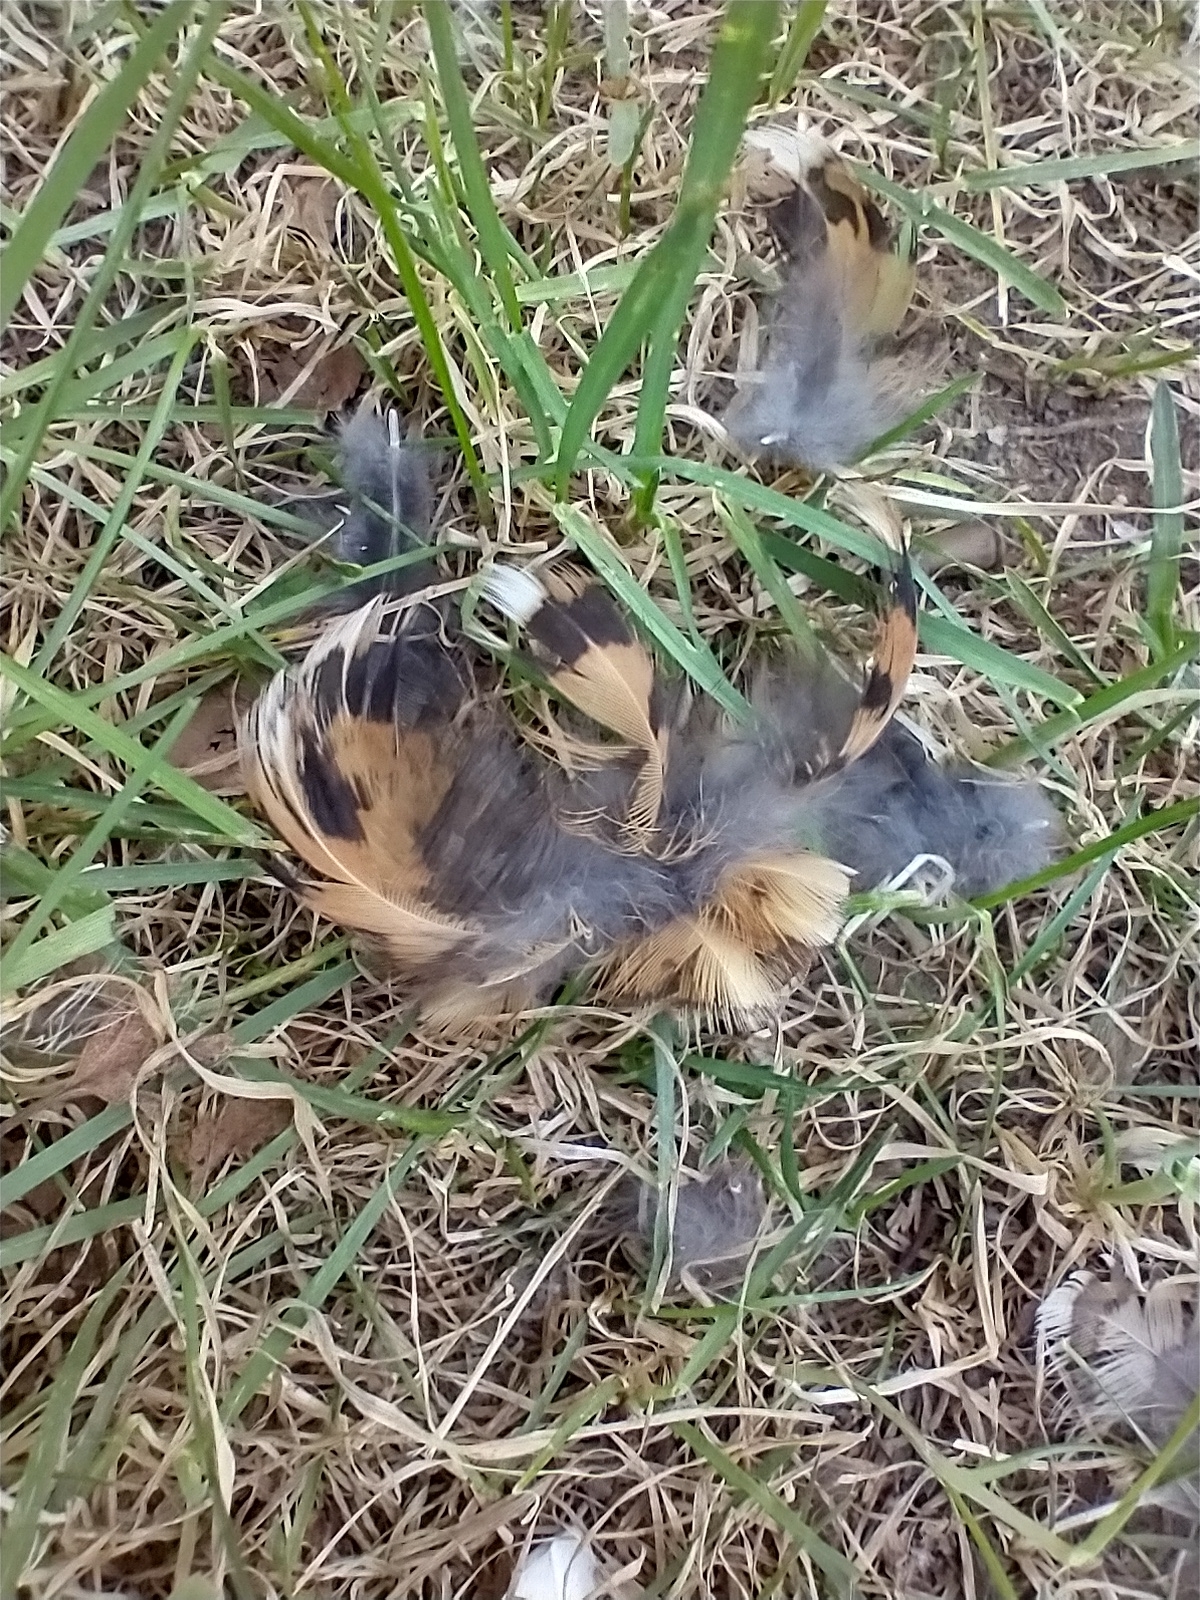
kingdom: Animalia
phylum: Chordata
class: Aves
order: Galliformes
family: Phasianidae
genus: Bonasa
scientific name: Bonasa umbellus
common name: Ruffed grouse
